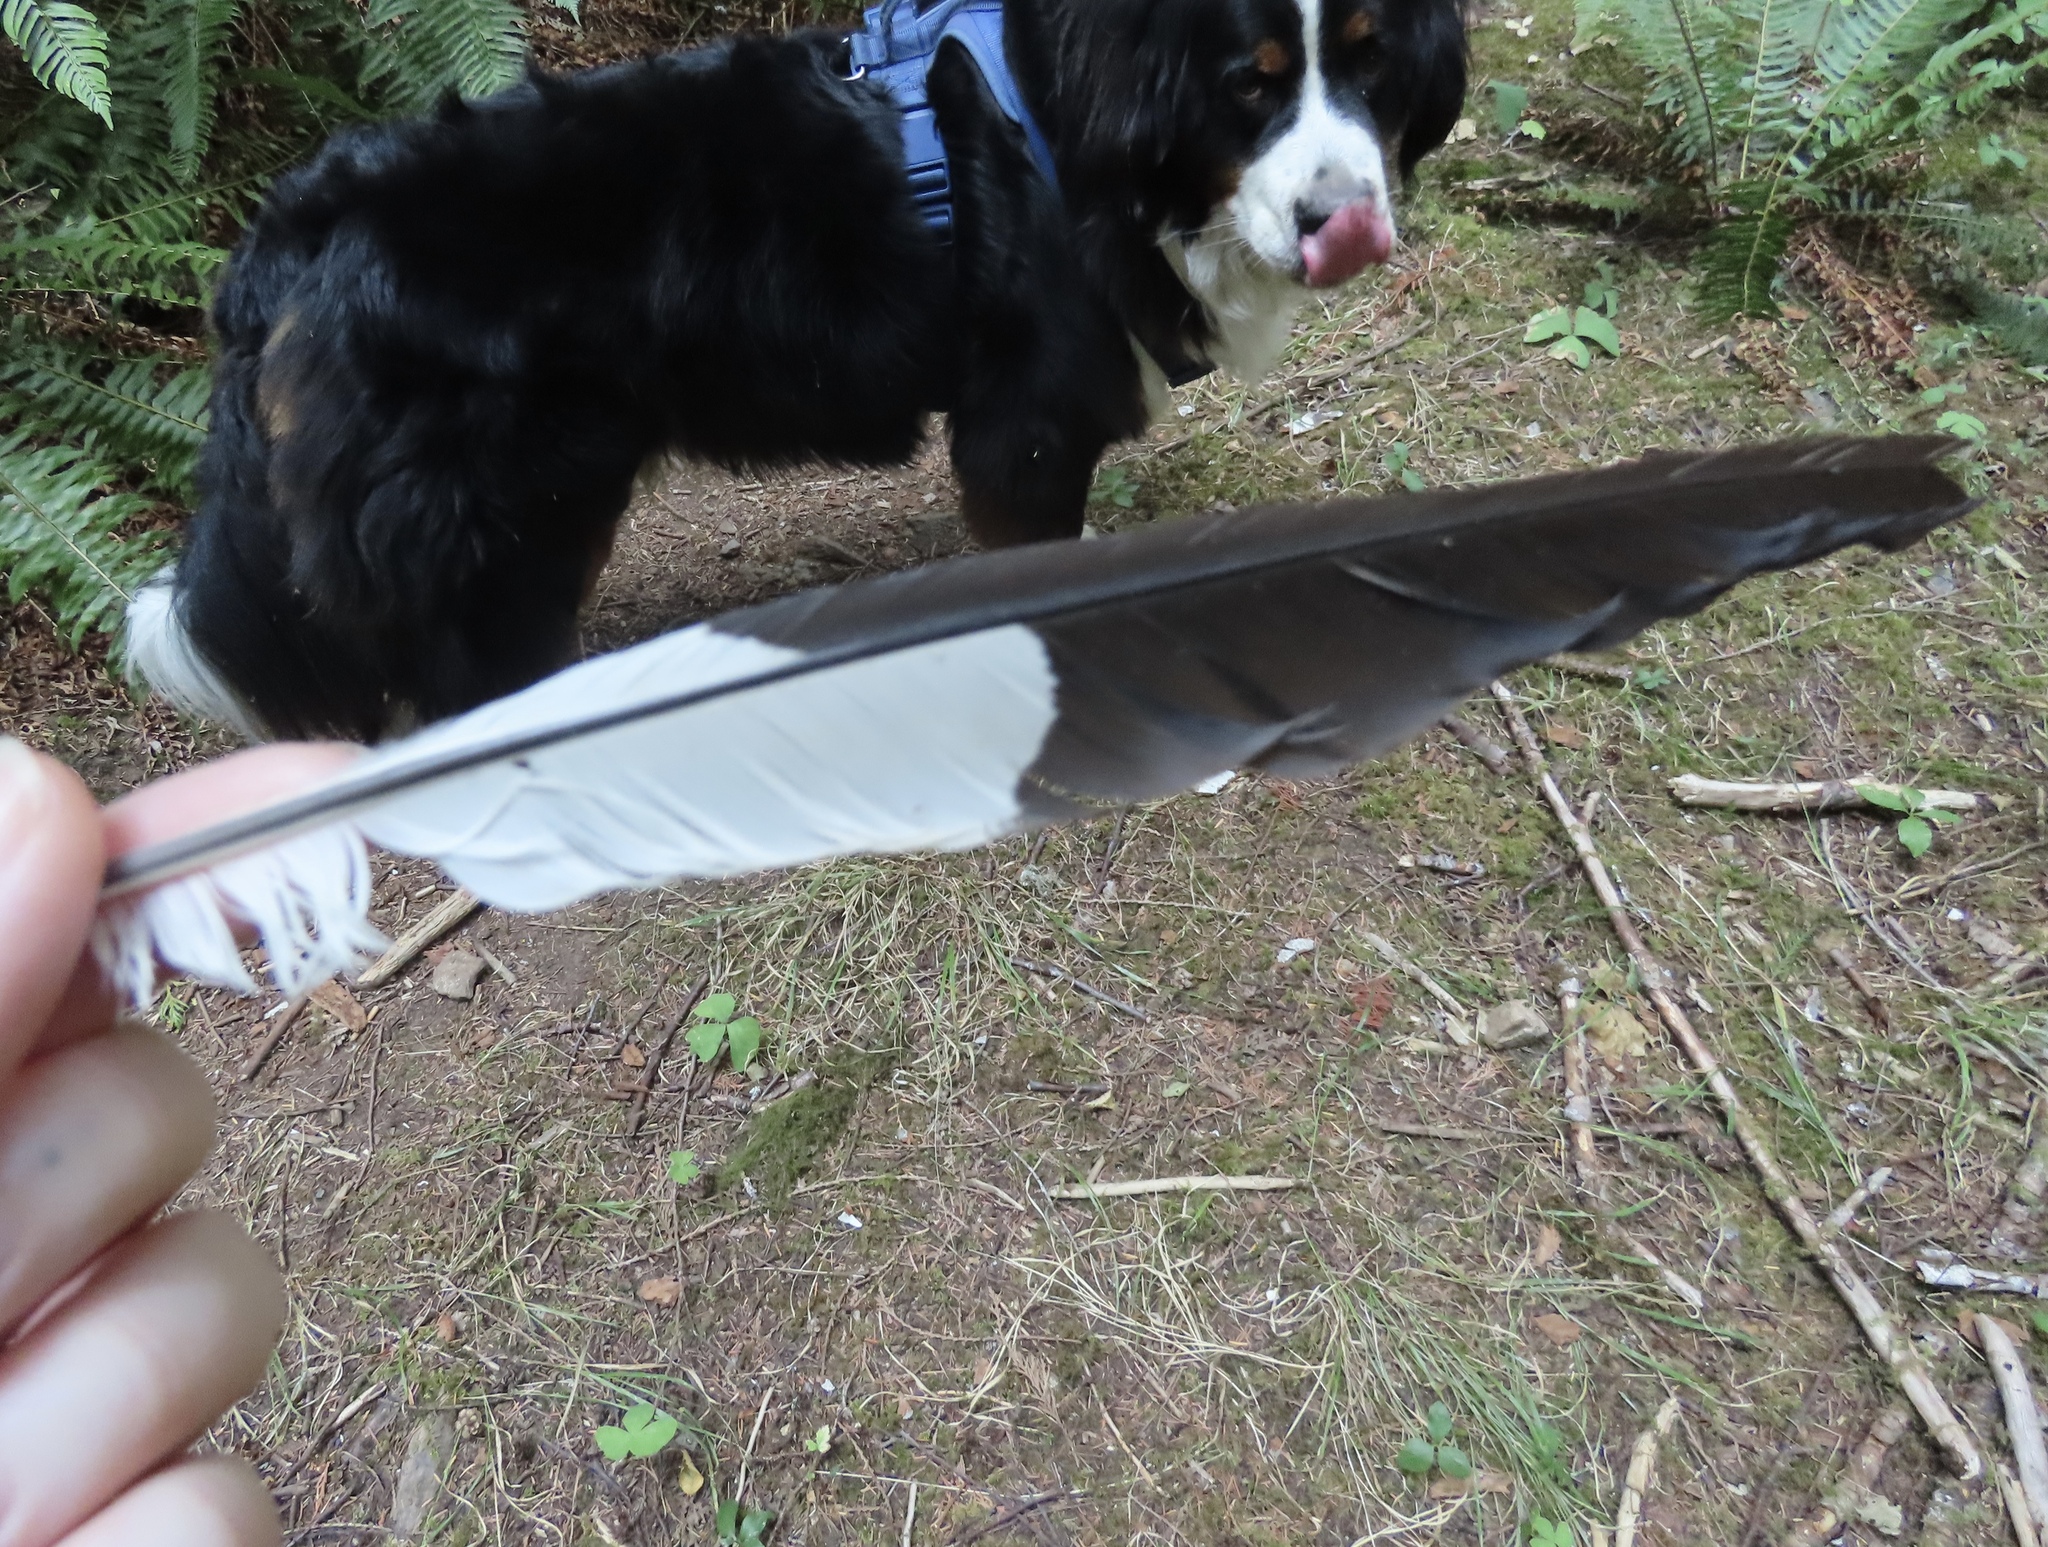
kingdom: Animalia
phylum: Chordata
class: Aves
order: Piciformes
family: Picidae
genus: Dryocopus
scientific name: Dryocopus pileatus
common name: Pileated woodpecker
